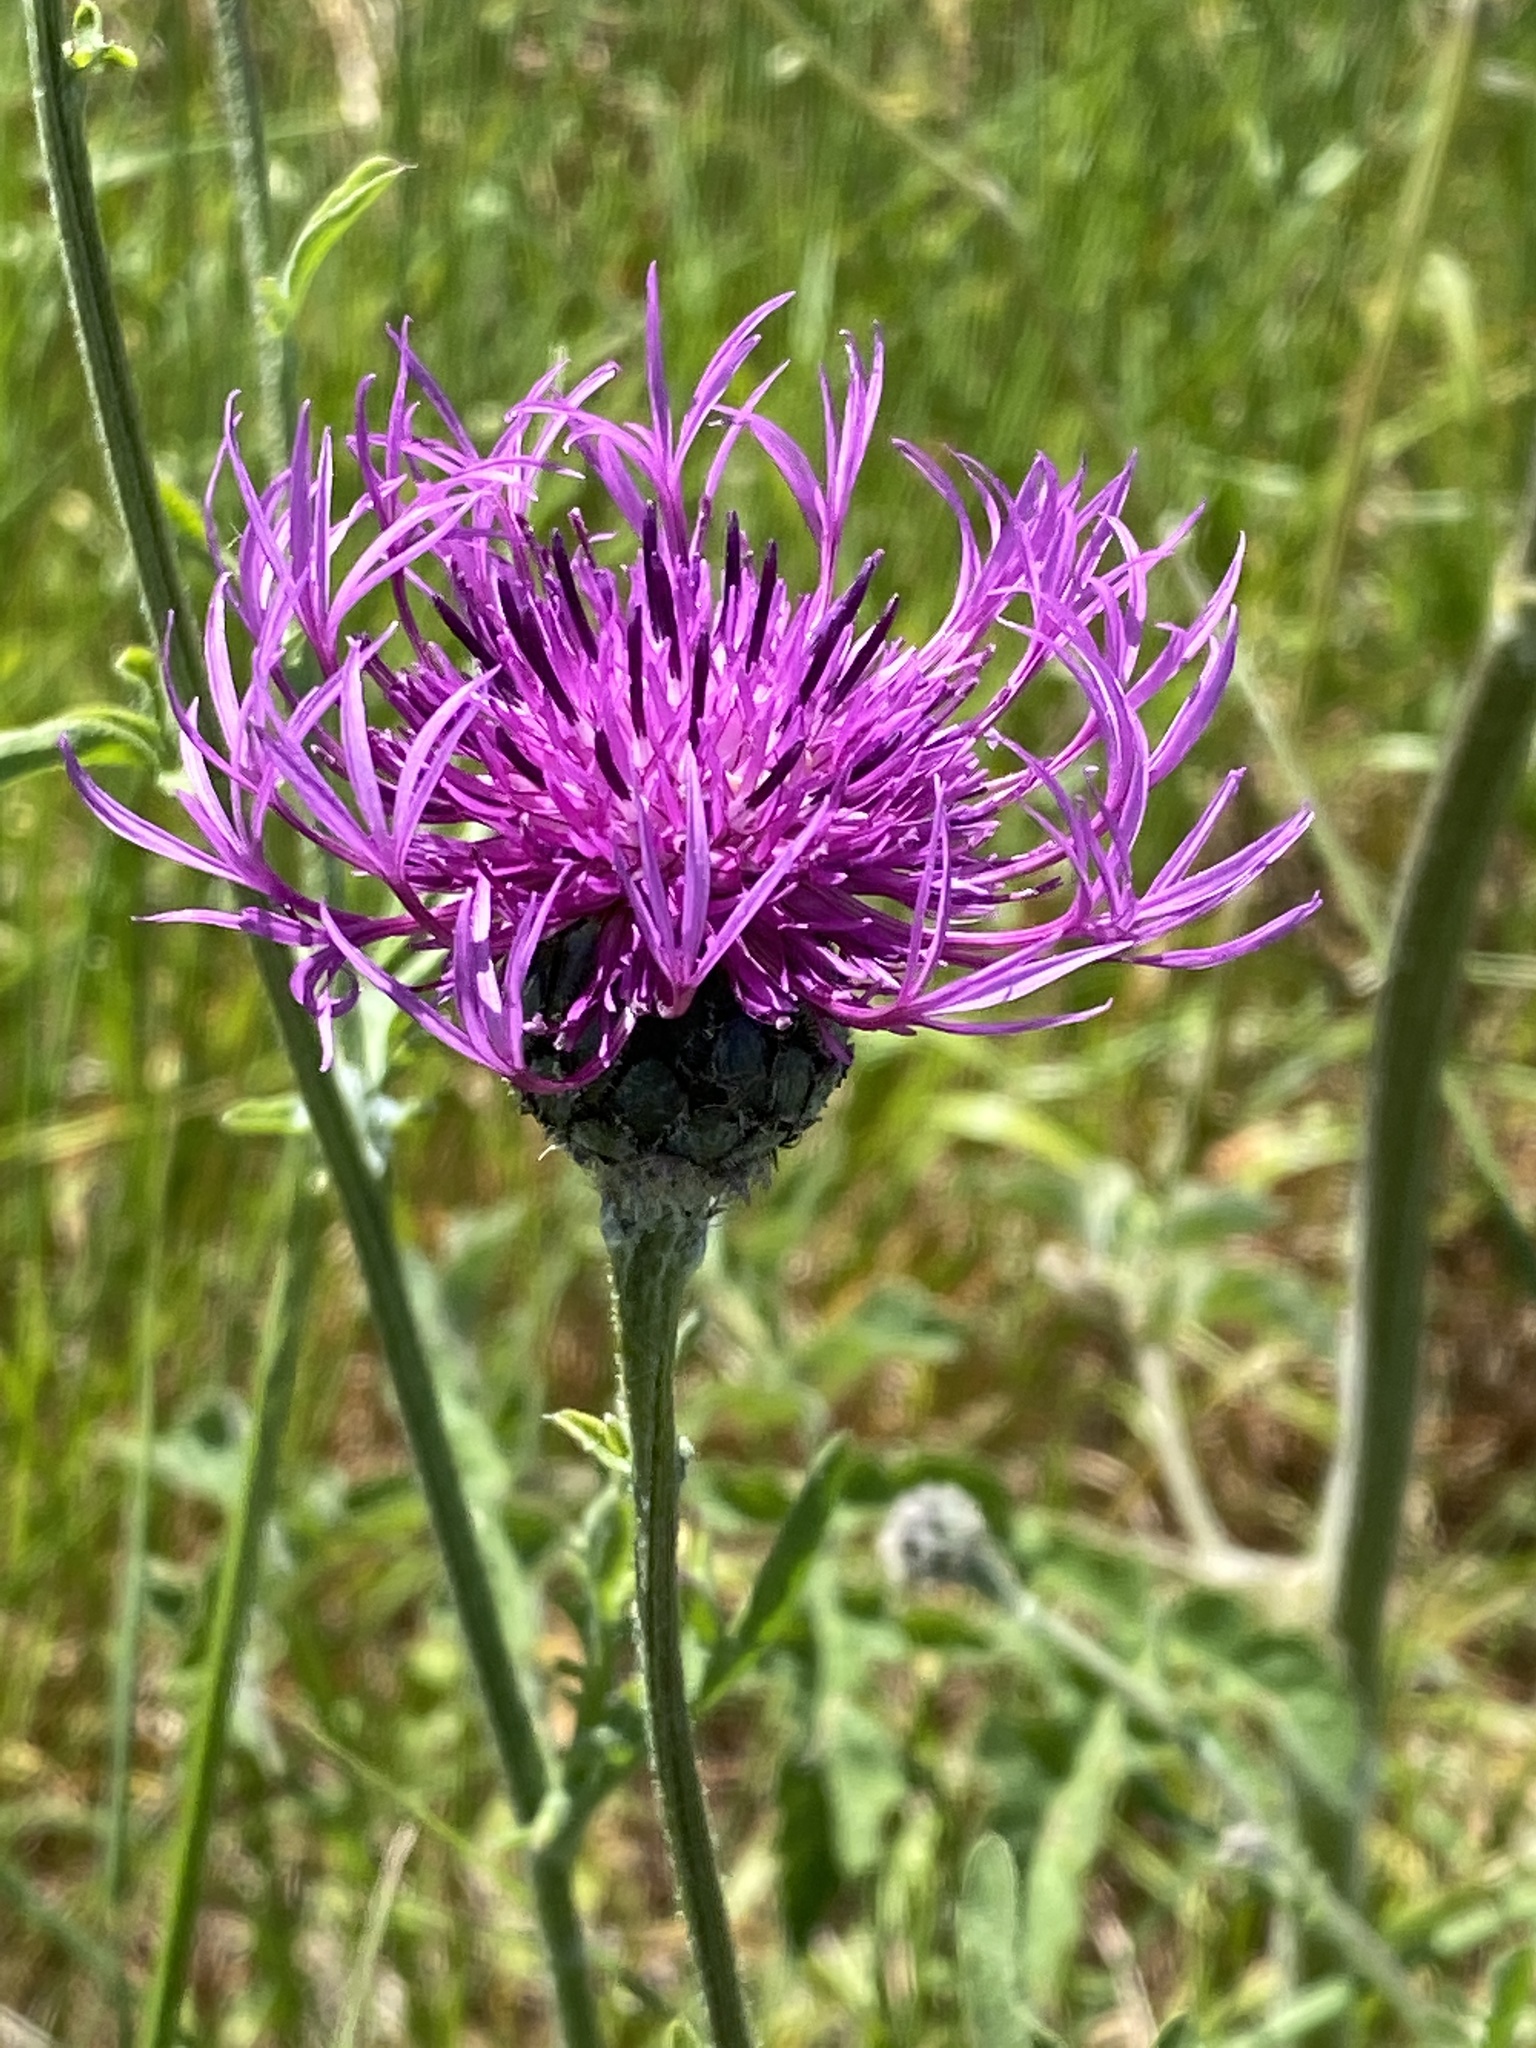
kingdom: Plantae
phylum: Tracheophyta
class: Magnoliopsida
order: Asterales
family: Asteraceae
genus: Centaurea
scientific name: Centaurea scabiosa
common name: Greater knapweed
